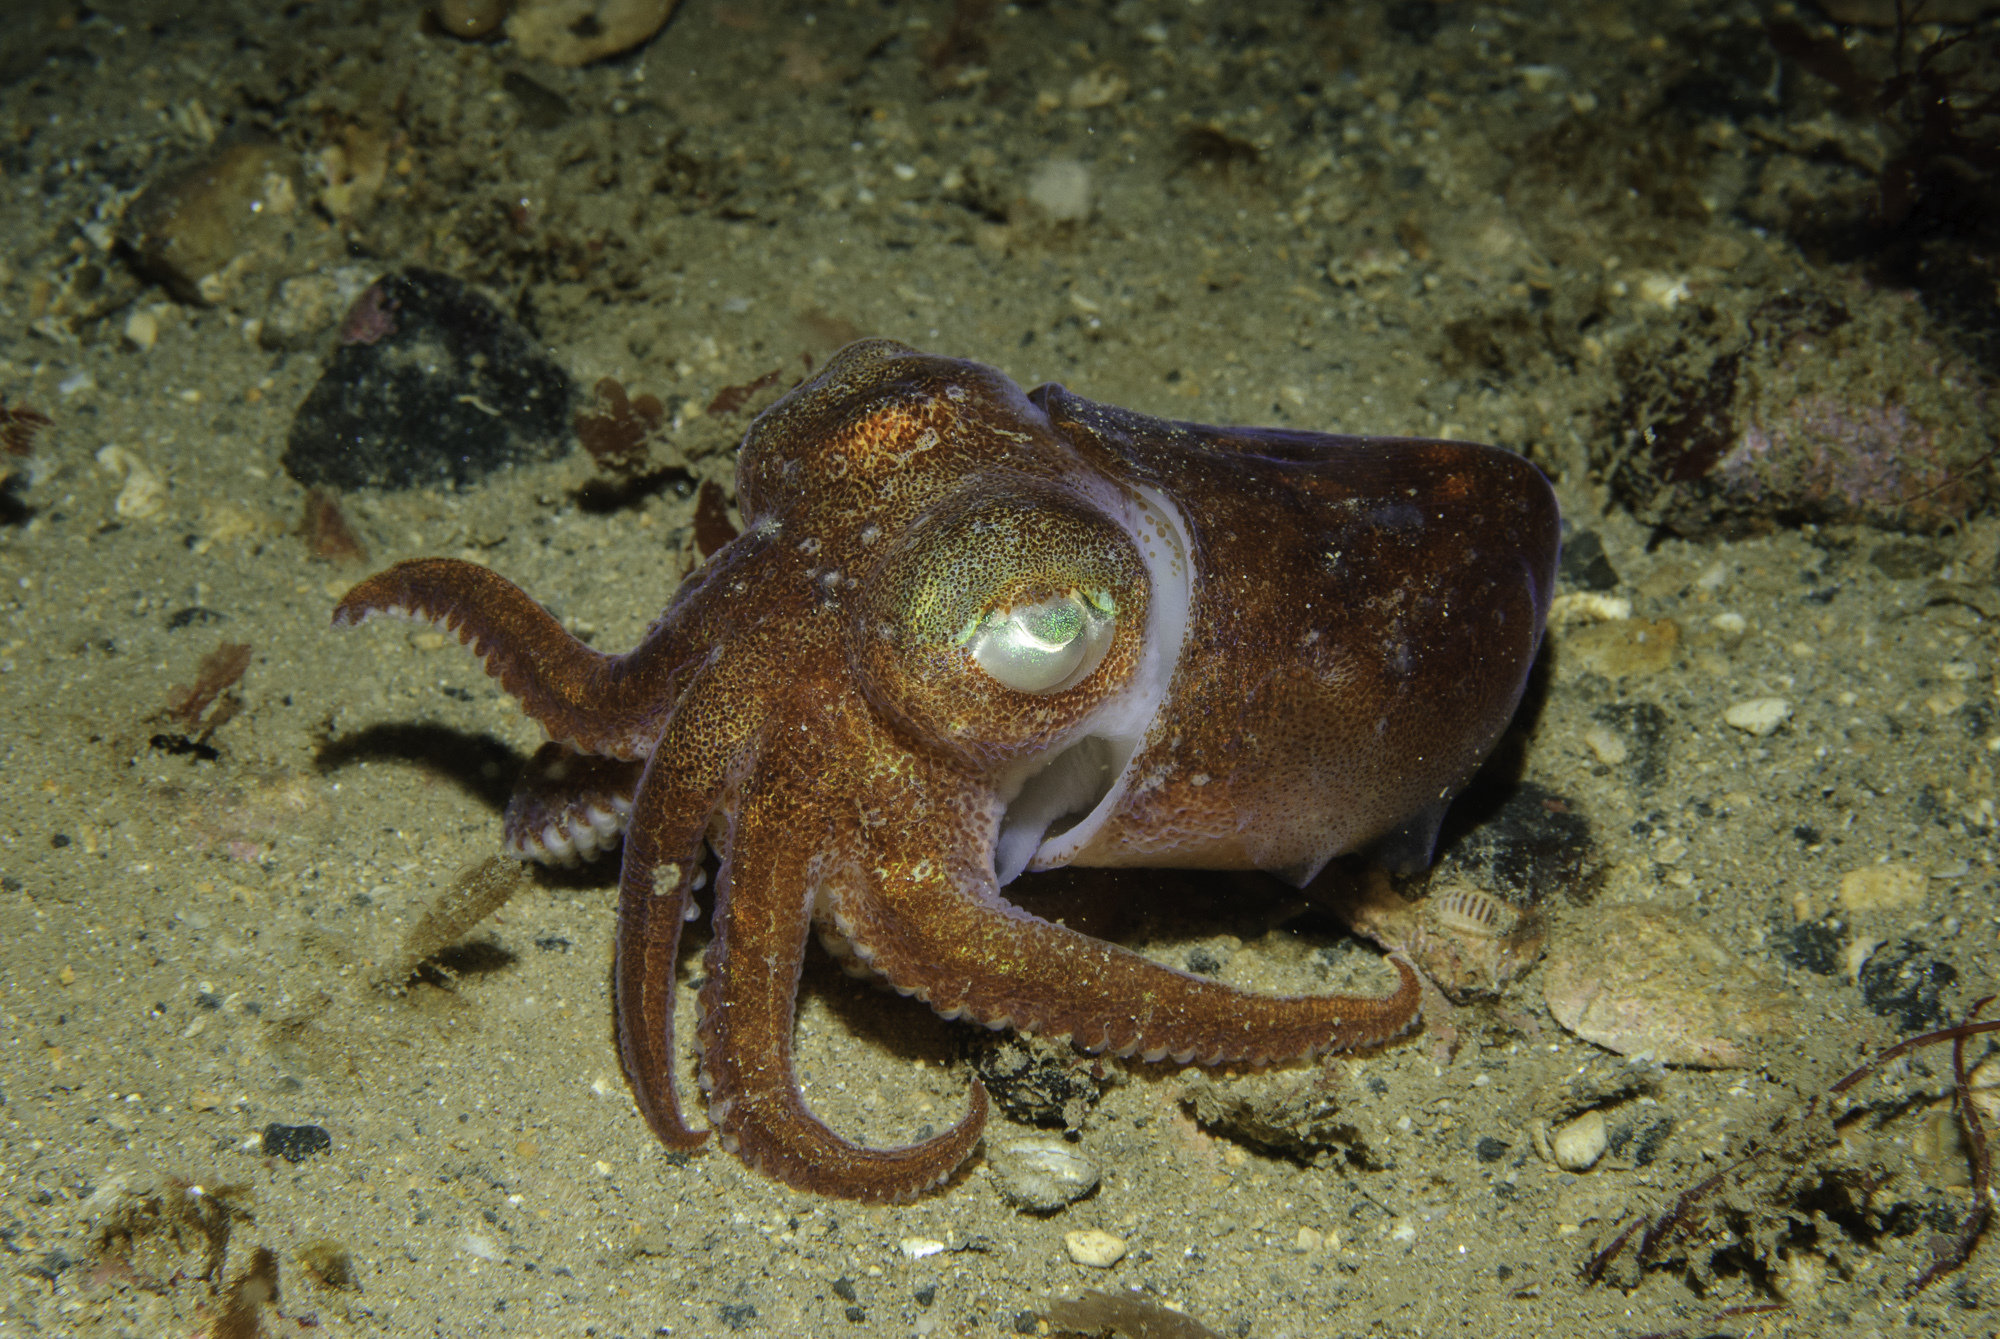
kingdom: Animalia
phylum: Mollusca
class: Cephalopoda
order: Sepiida
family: Sepiolidae
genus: Rossia
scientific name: Rossia macrosoma
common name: Stout bobtail
